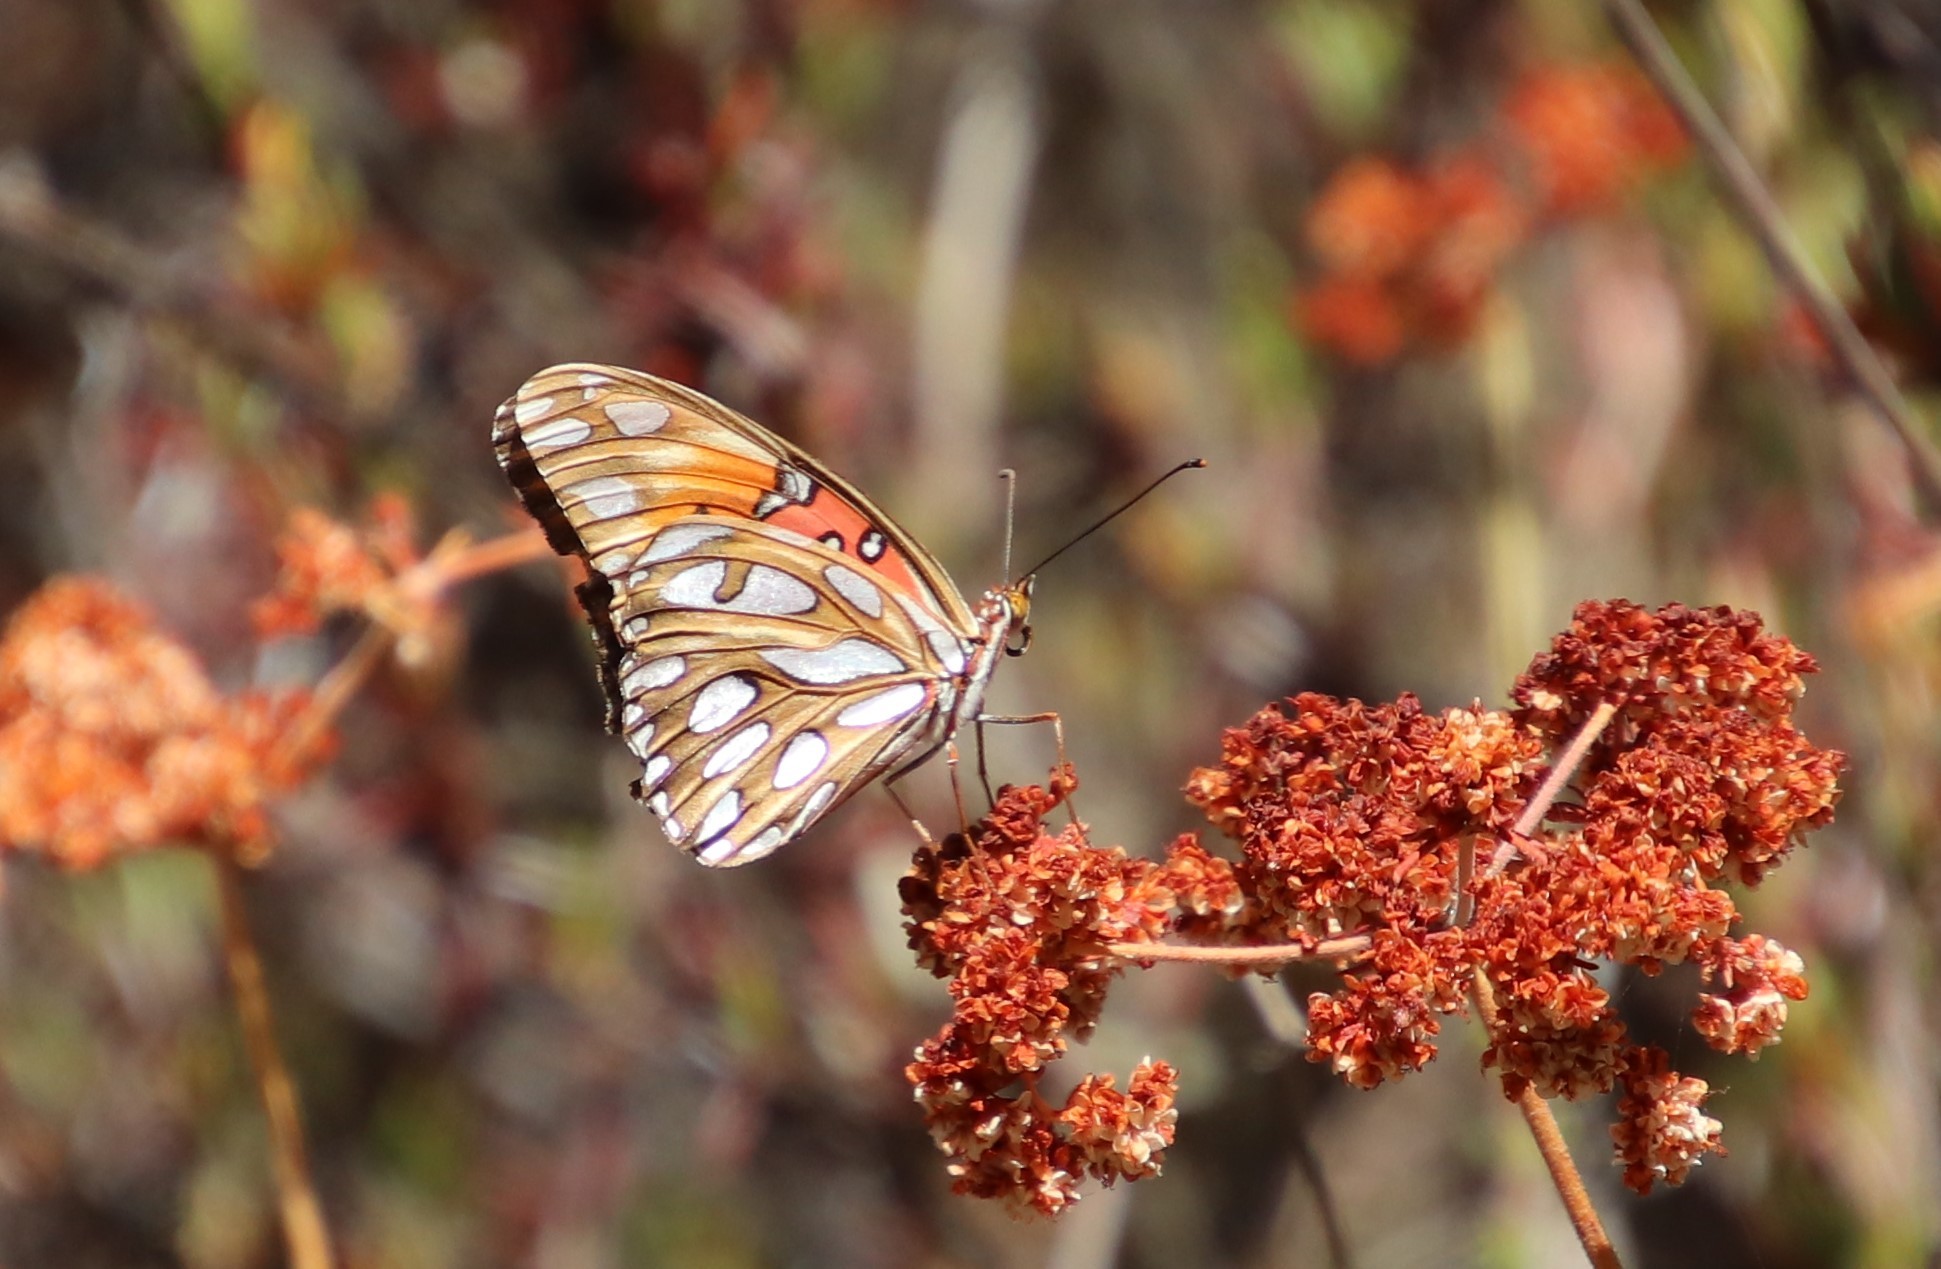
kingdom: Animalia
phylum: Arthropoda
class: Insecta
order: Lepidoptera
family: Nymphalidae
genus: Dione
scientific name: Dione vanillae
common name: Gulf fritillary
